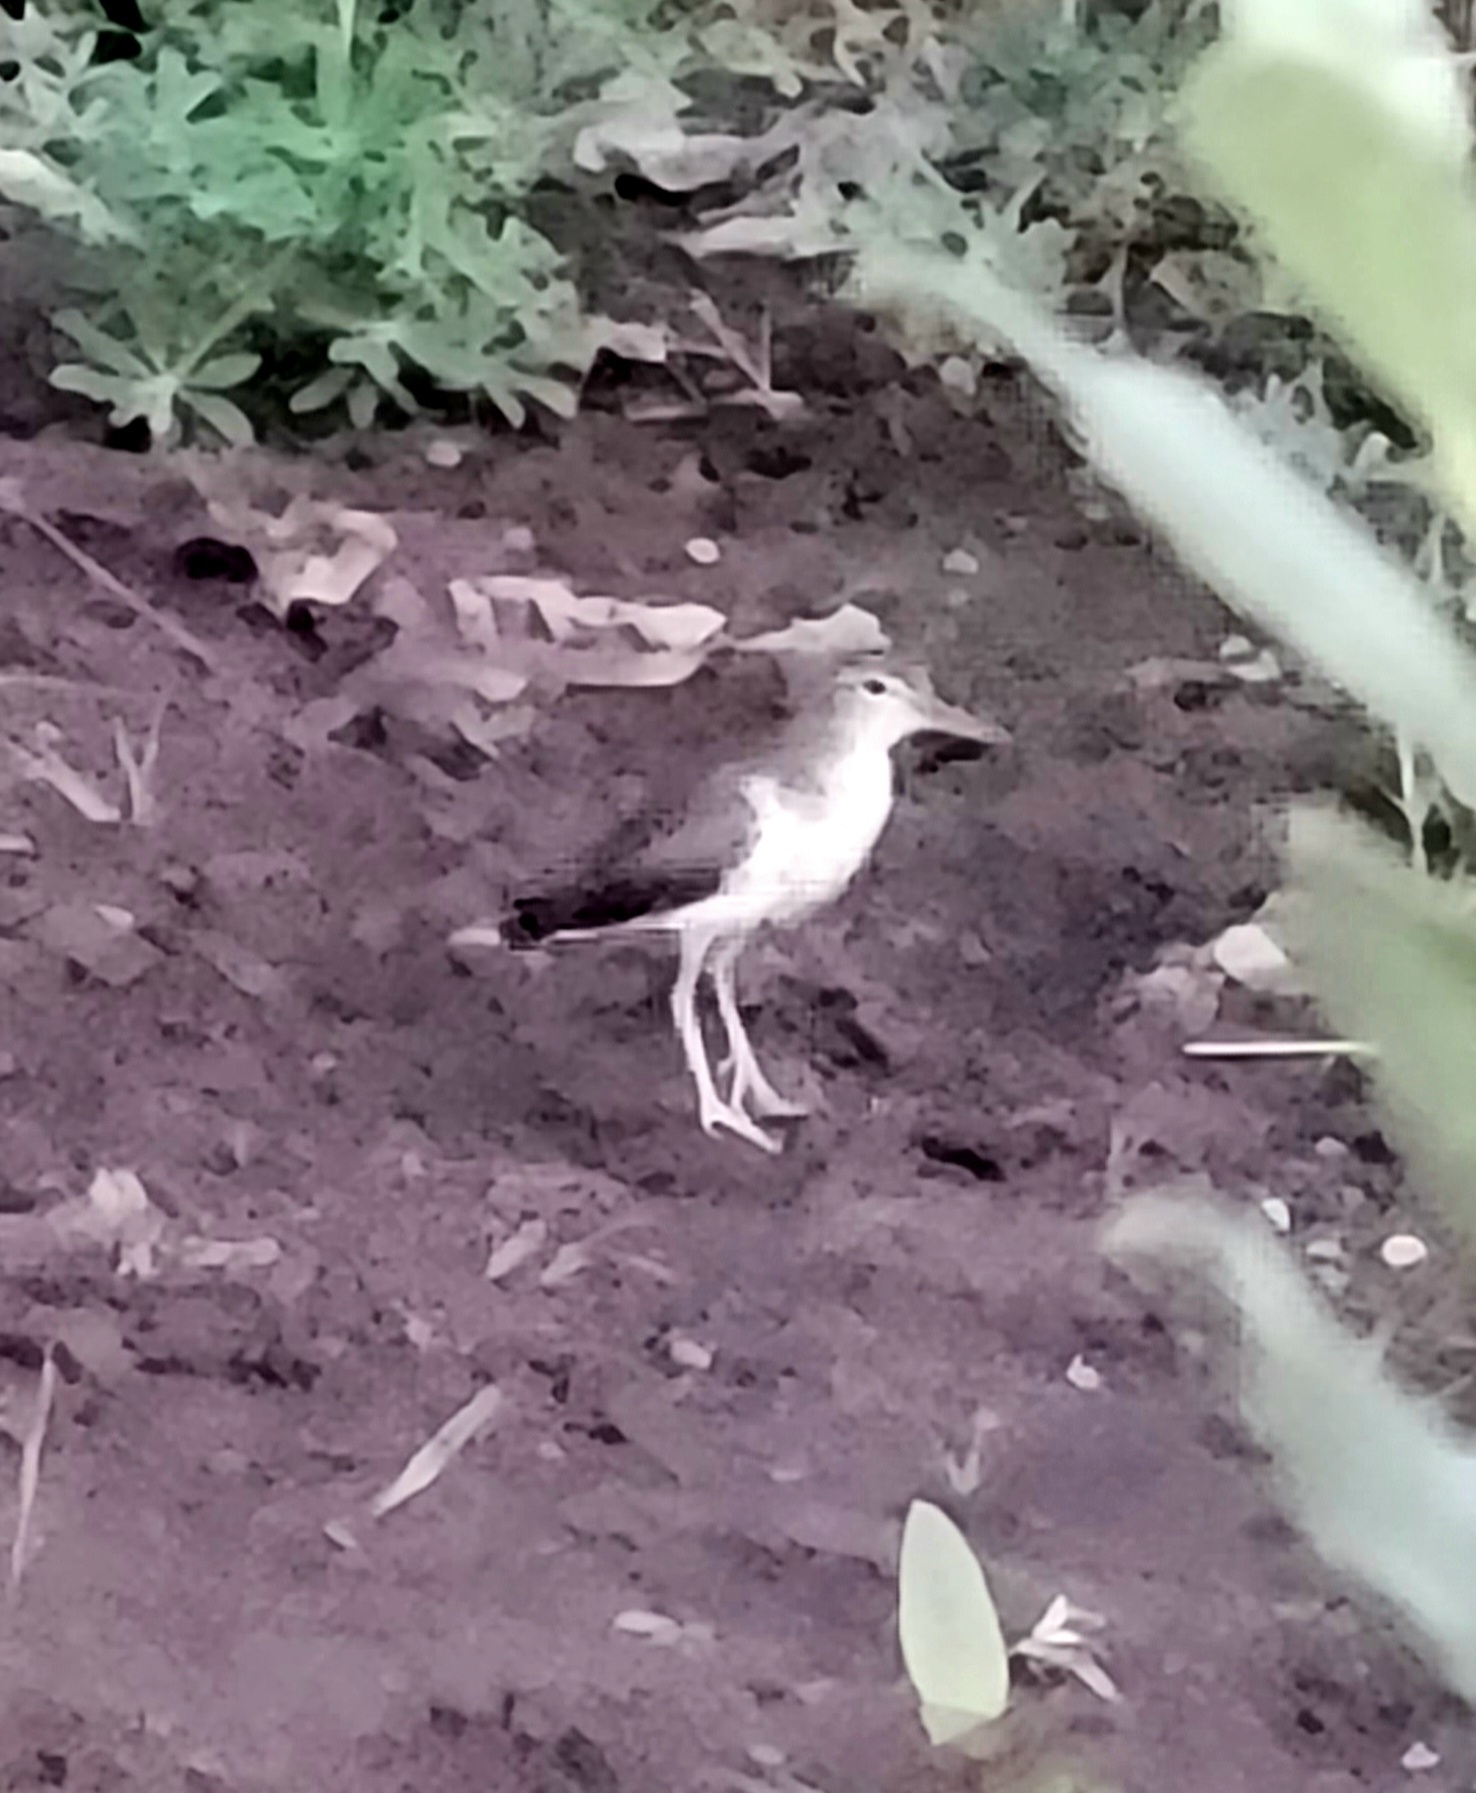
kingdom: Animalia
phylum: Chordata
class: Aves
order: Charadriiformes
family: Scolopacidae
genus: Actitis
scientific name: Actitis macularius
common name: Spotted sandpiper
